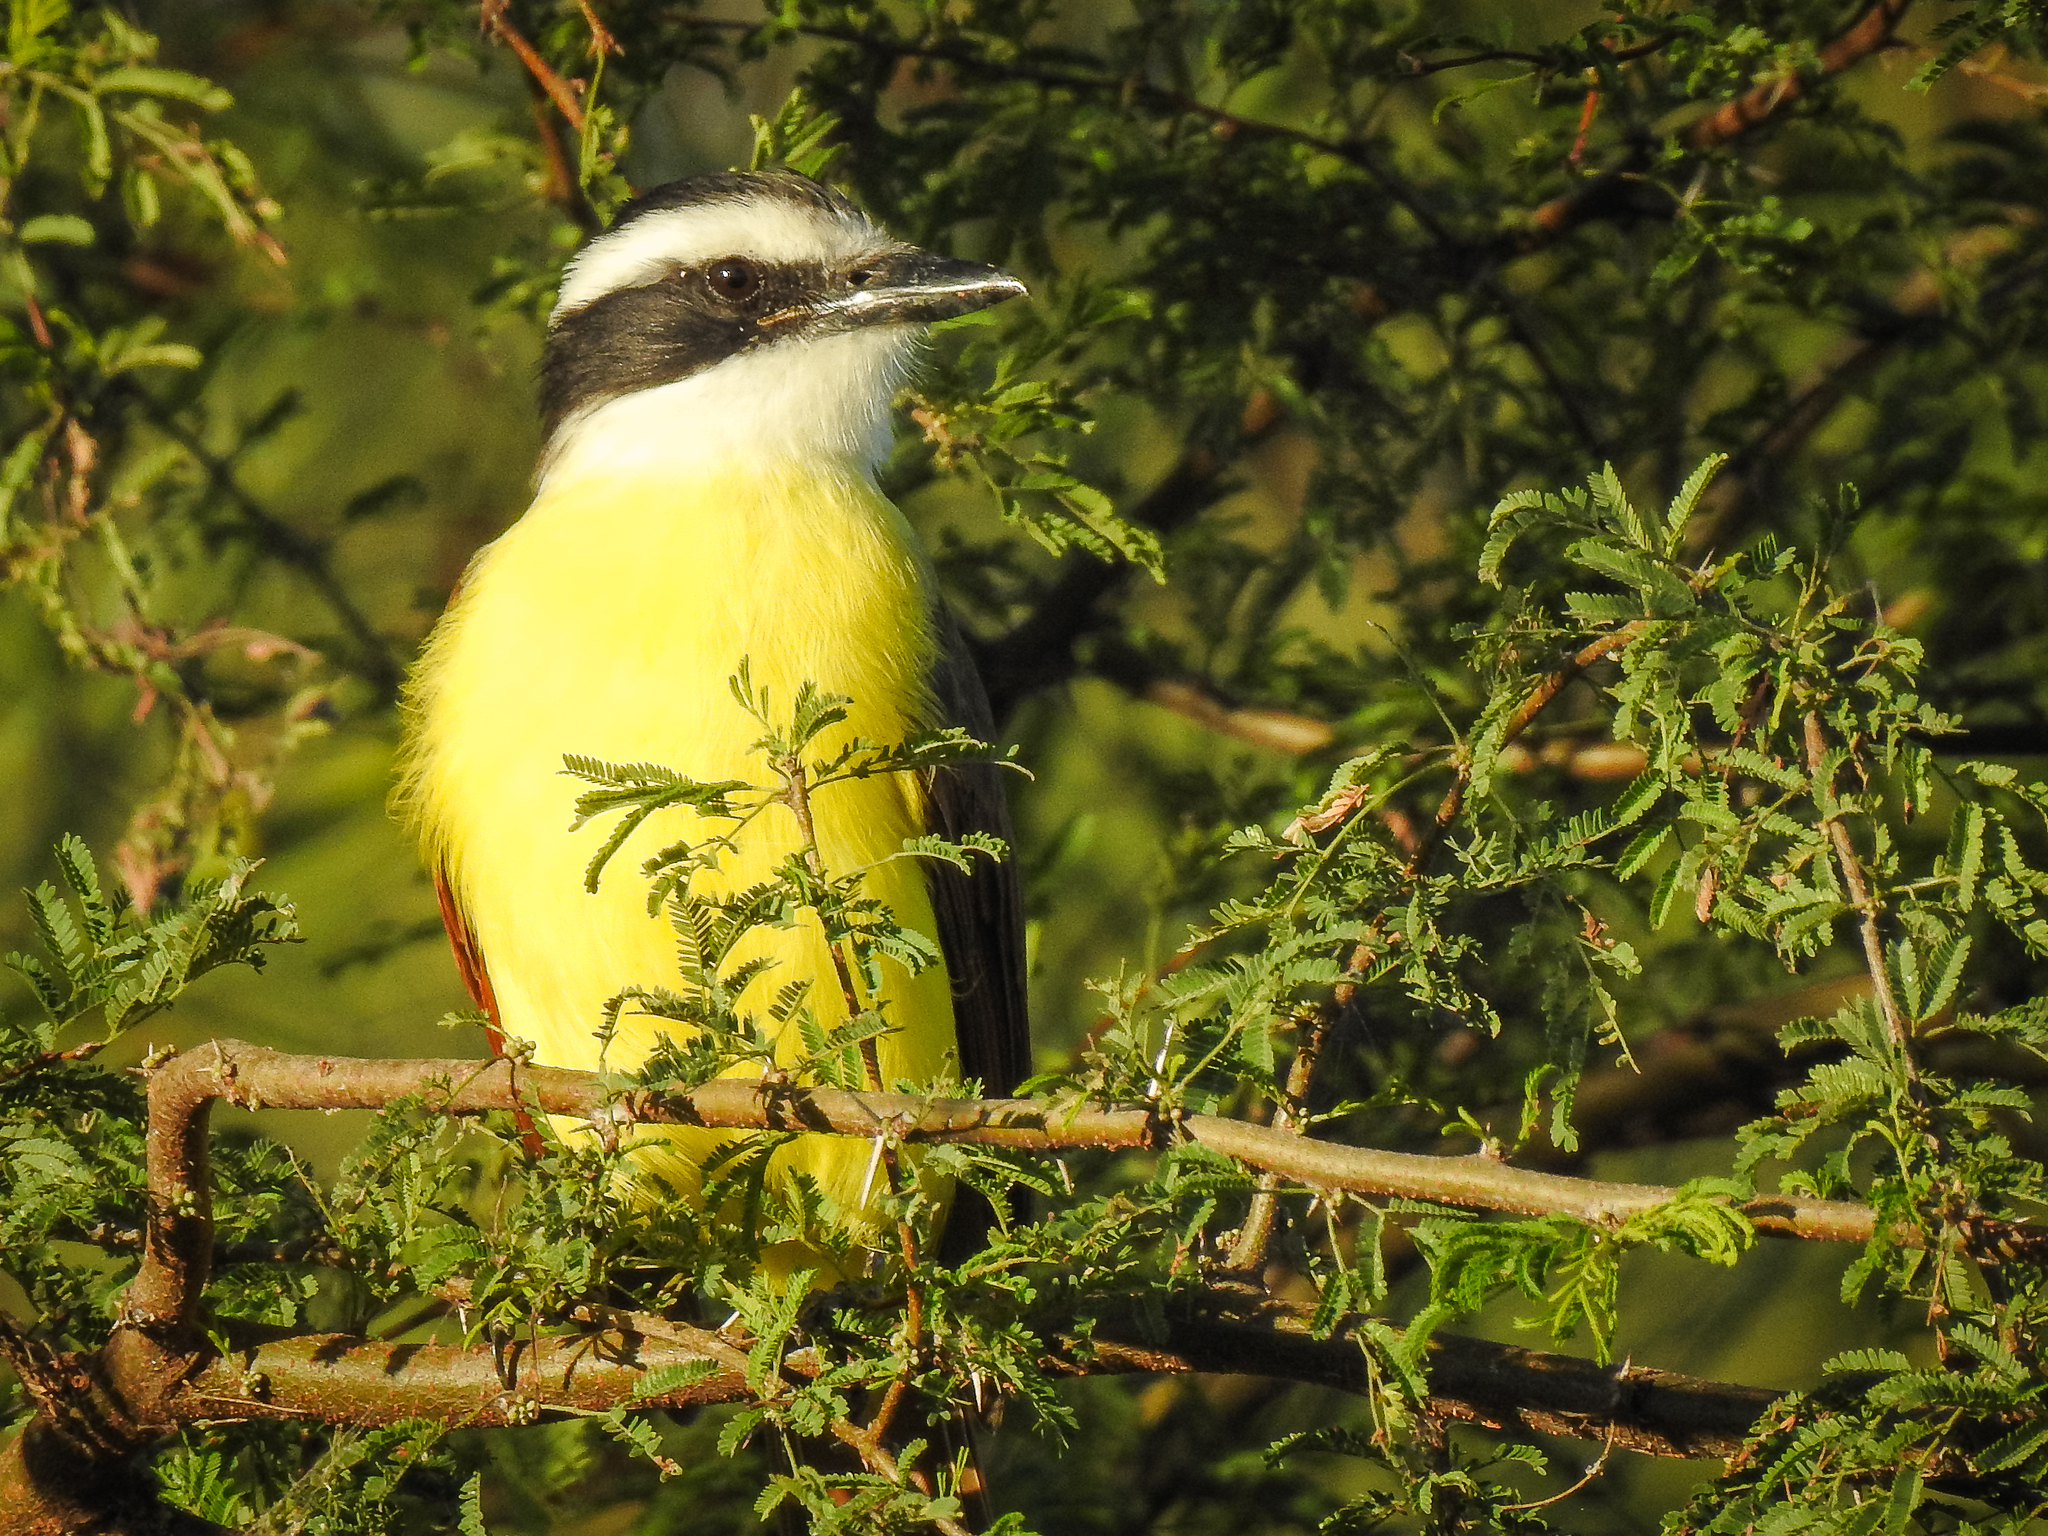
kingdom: Animalia
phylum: Chordata
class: Aves
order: Passeriformes
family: Tyrannidae
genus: Pitangus
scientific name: Pitangus sulphuratus
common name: Great kiskadee
